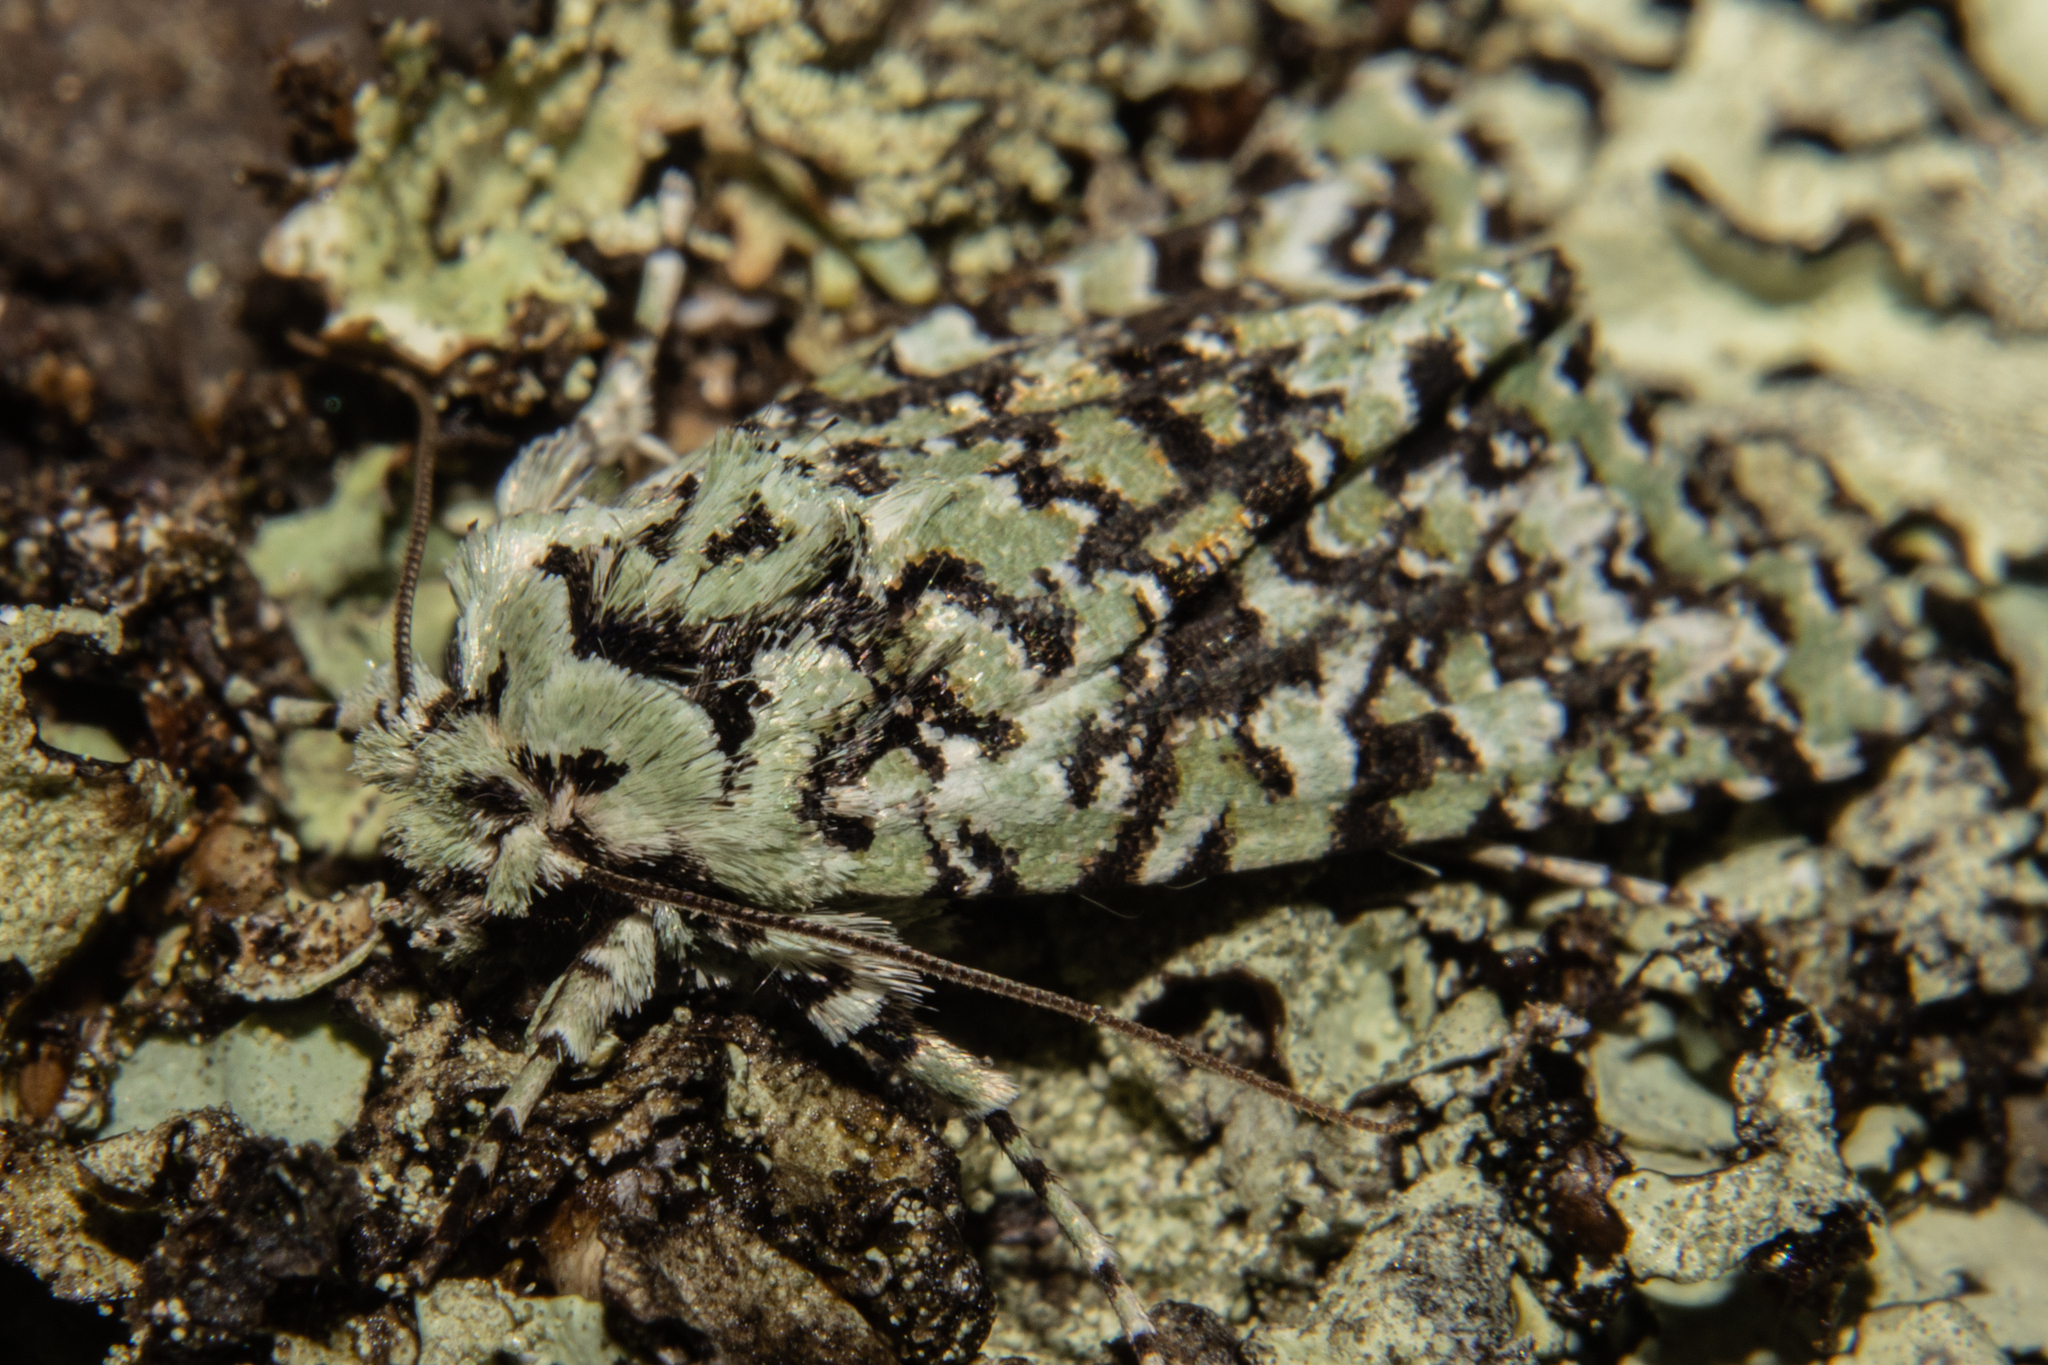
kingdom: Animalia
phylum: Arthropoda
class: Insecta
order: Lepidoptera
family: Noctuidae
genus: Meterana
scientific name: Meterana
